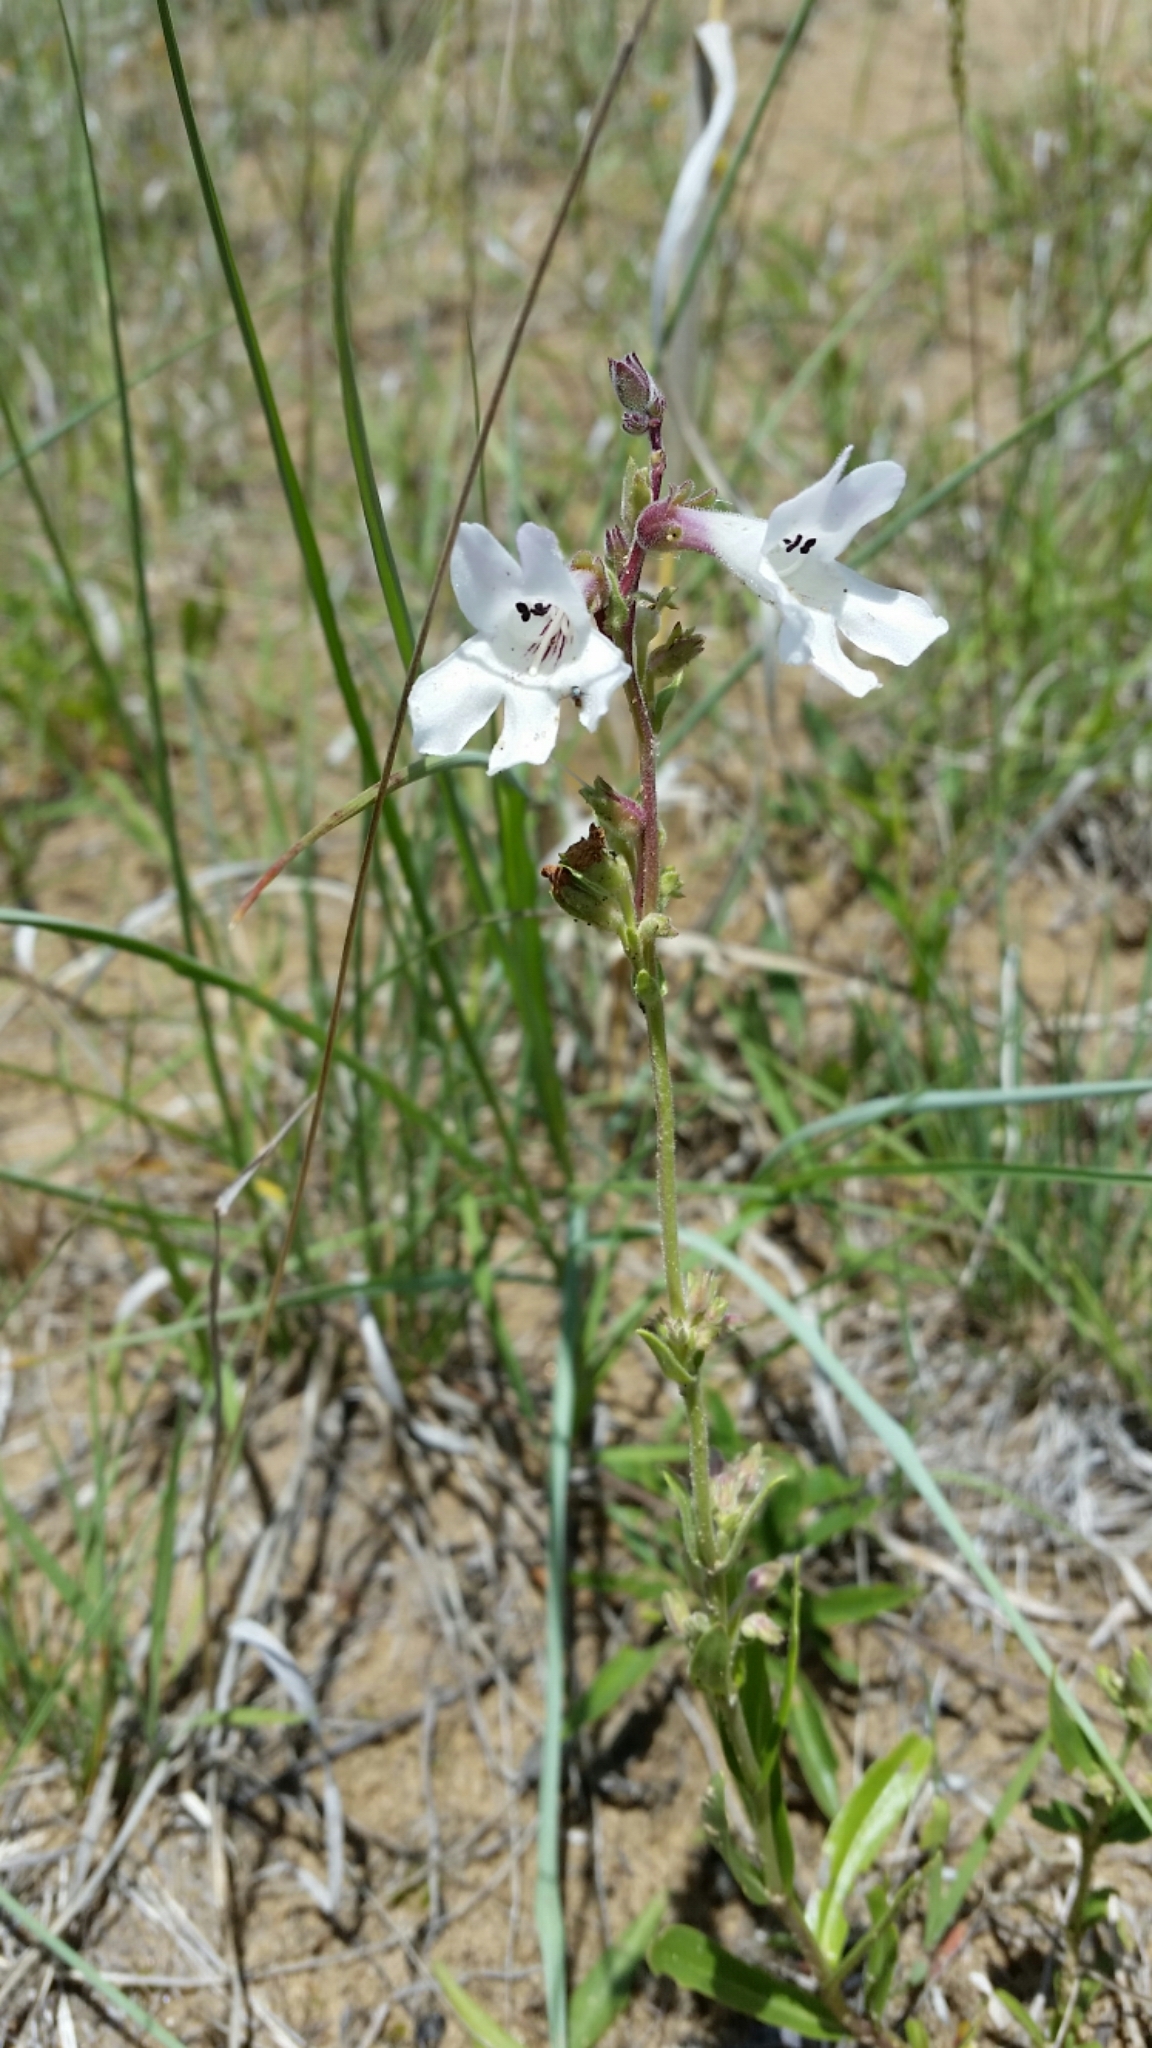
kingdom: Plantae
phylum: Tracheophyta
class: Magnoliopsida
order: Lamiales
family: Plantaginaceae
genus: Penstemon
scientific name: Penstemon albidus
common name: White beardtongue
